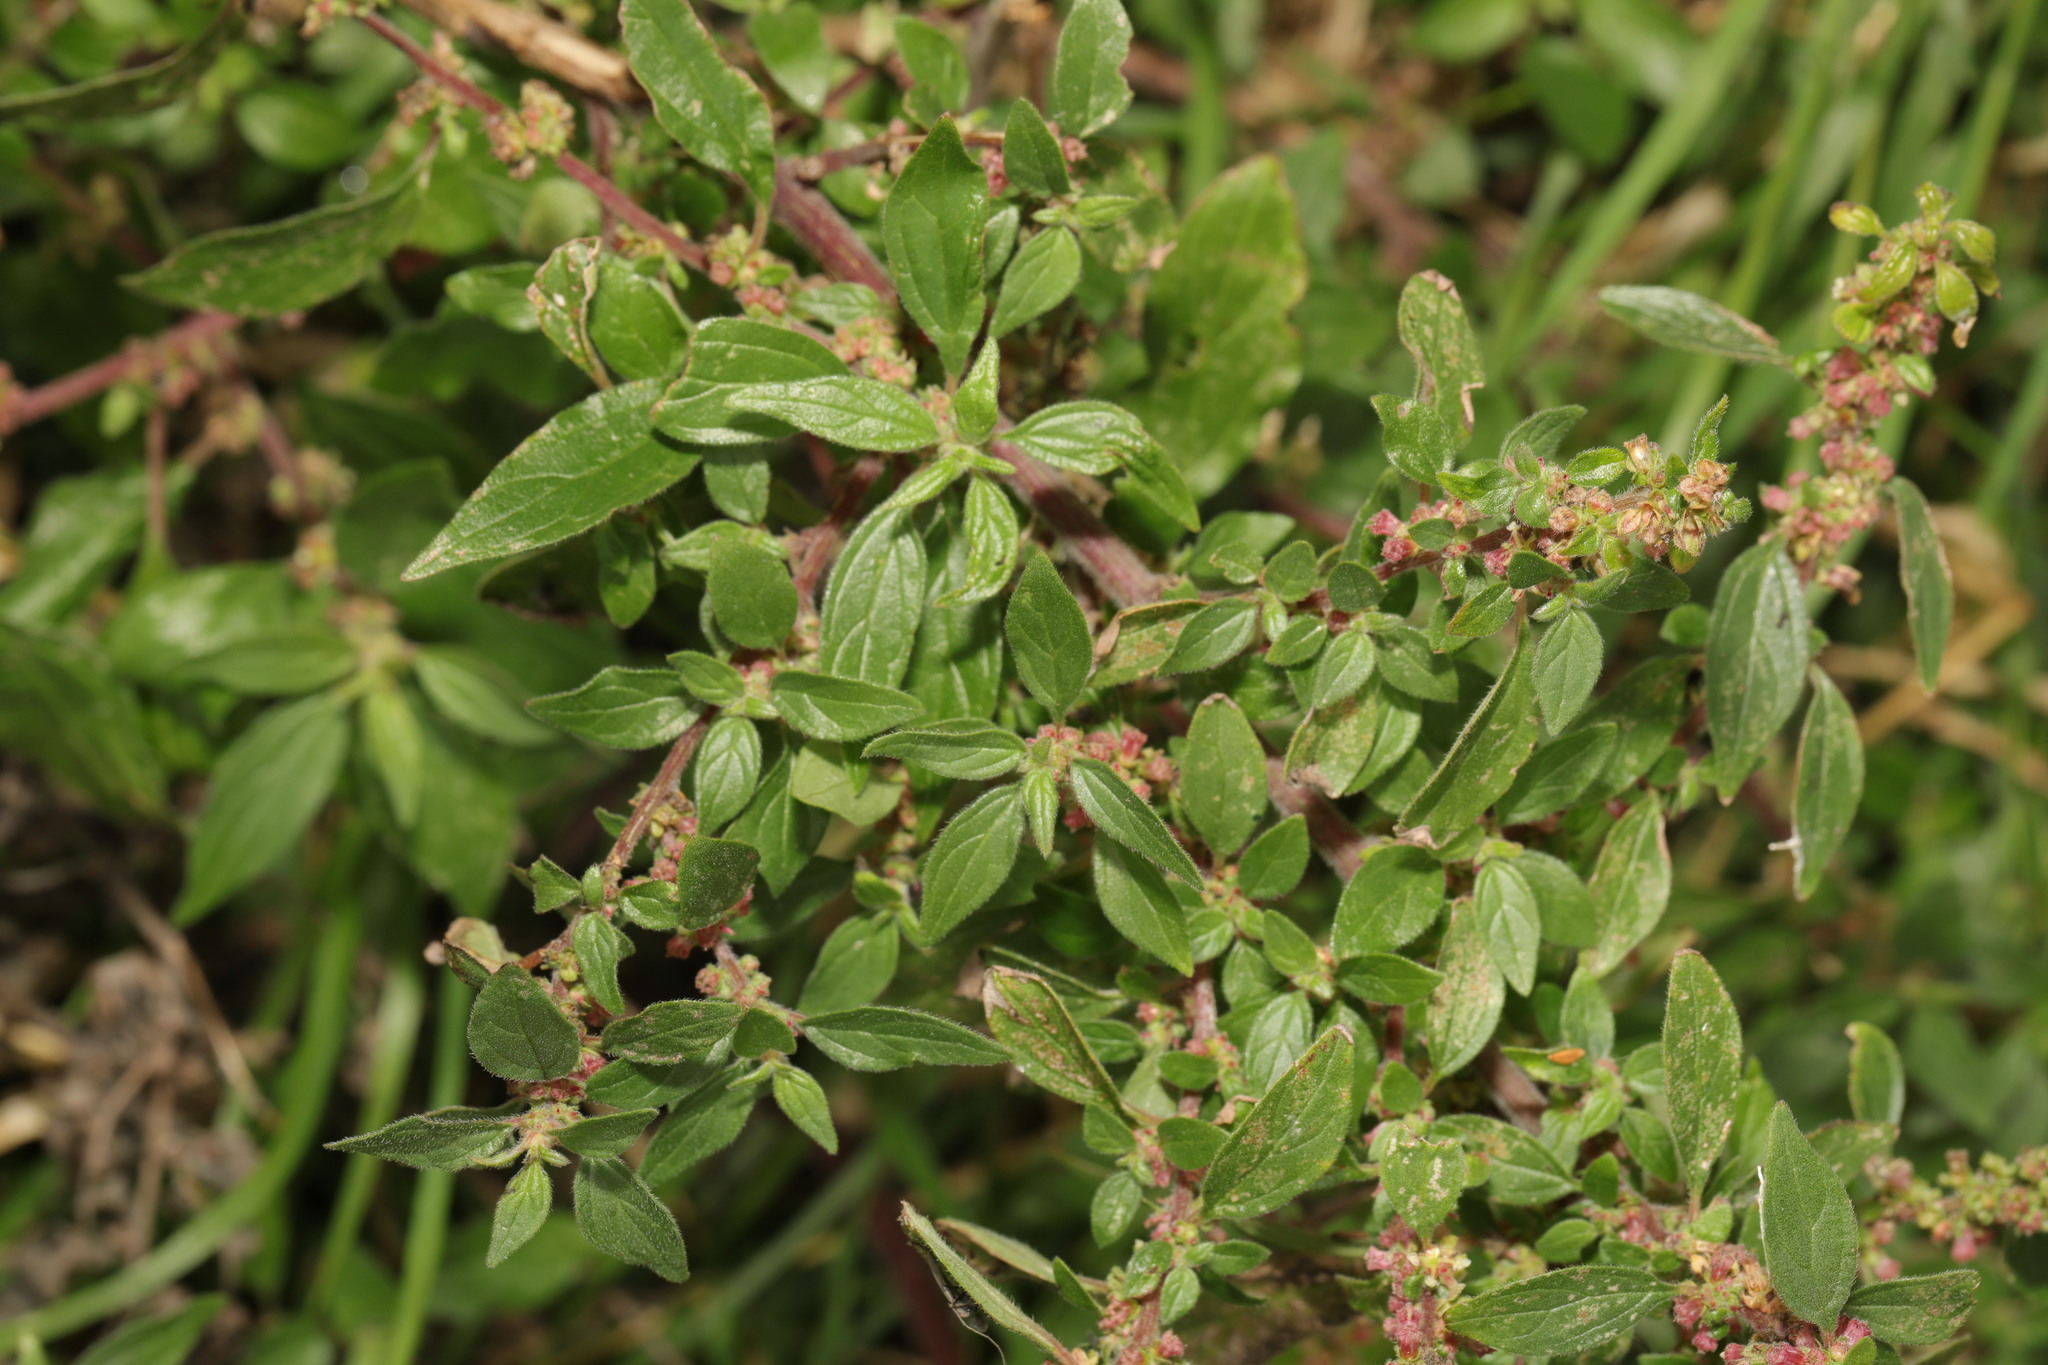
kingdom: Plantae
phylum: Tracheophyta
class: Magnoliopsida
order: Rosales
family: Urticaceae
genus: Parietaria
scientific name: Parietaria judaica
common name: Pellitory-of-the-wall
